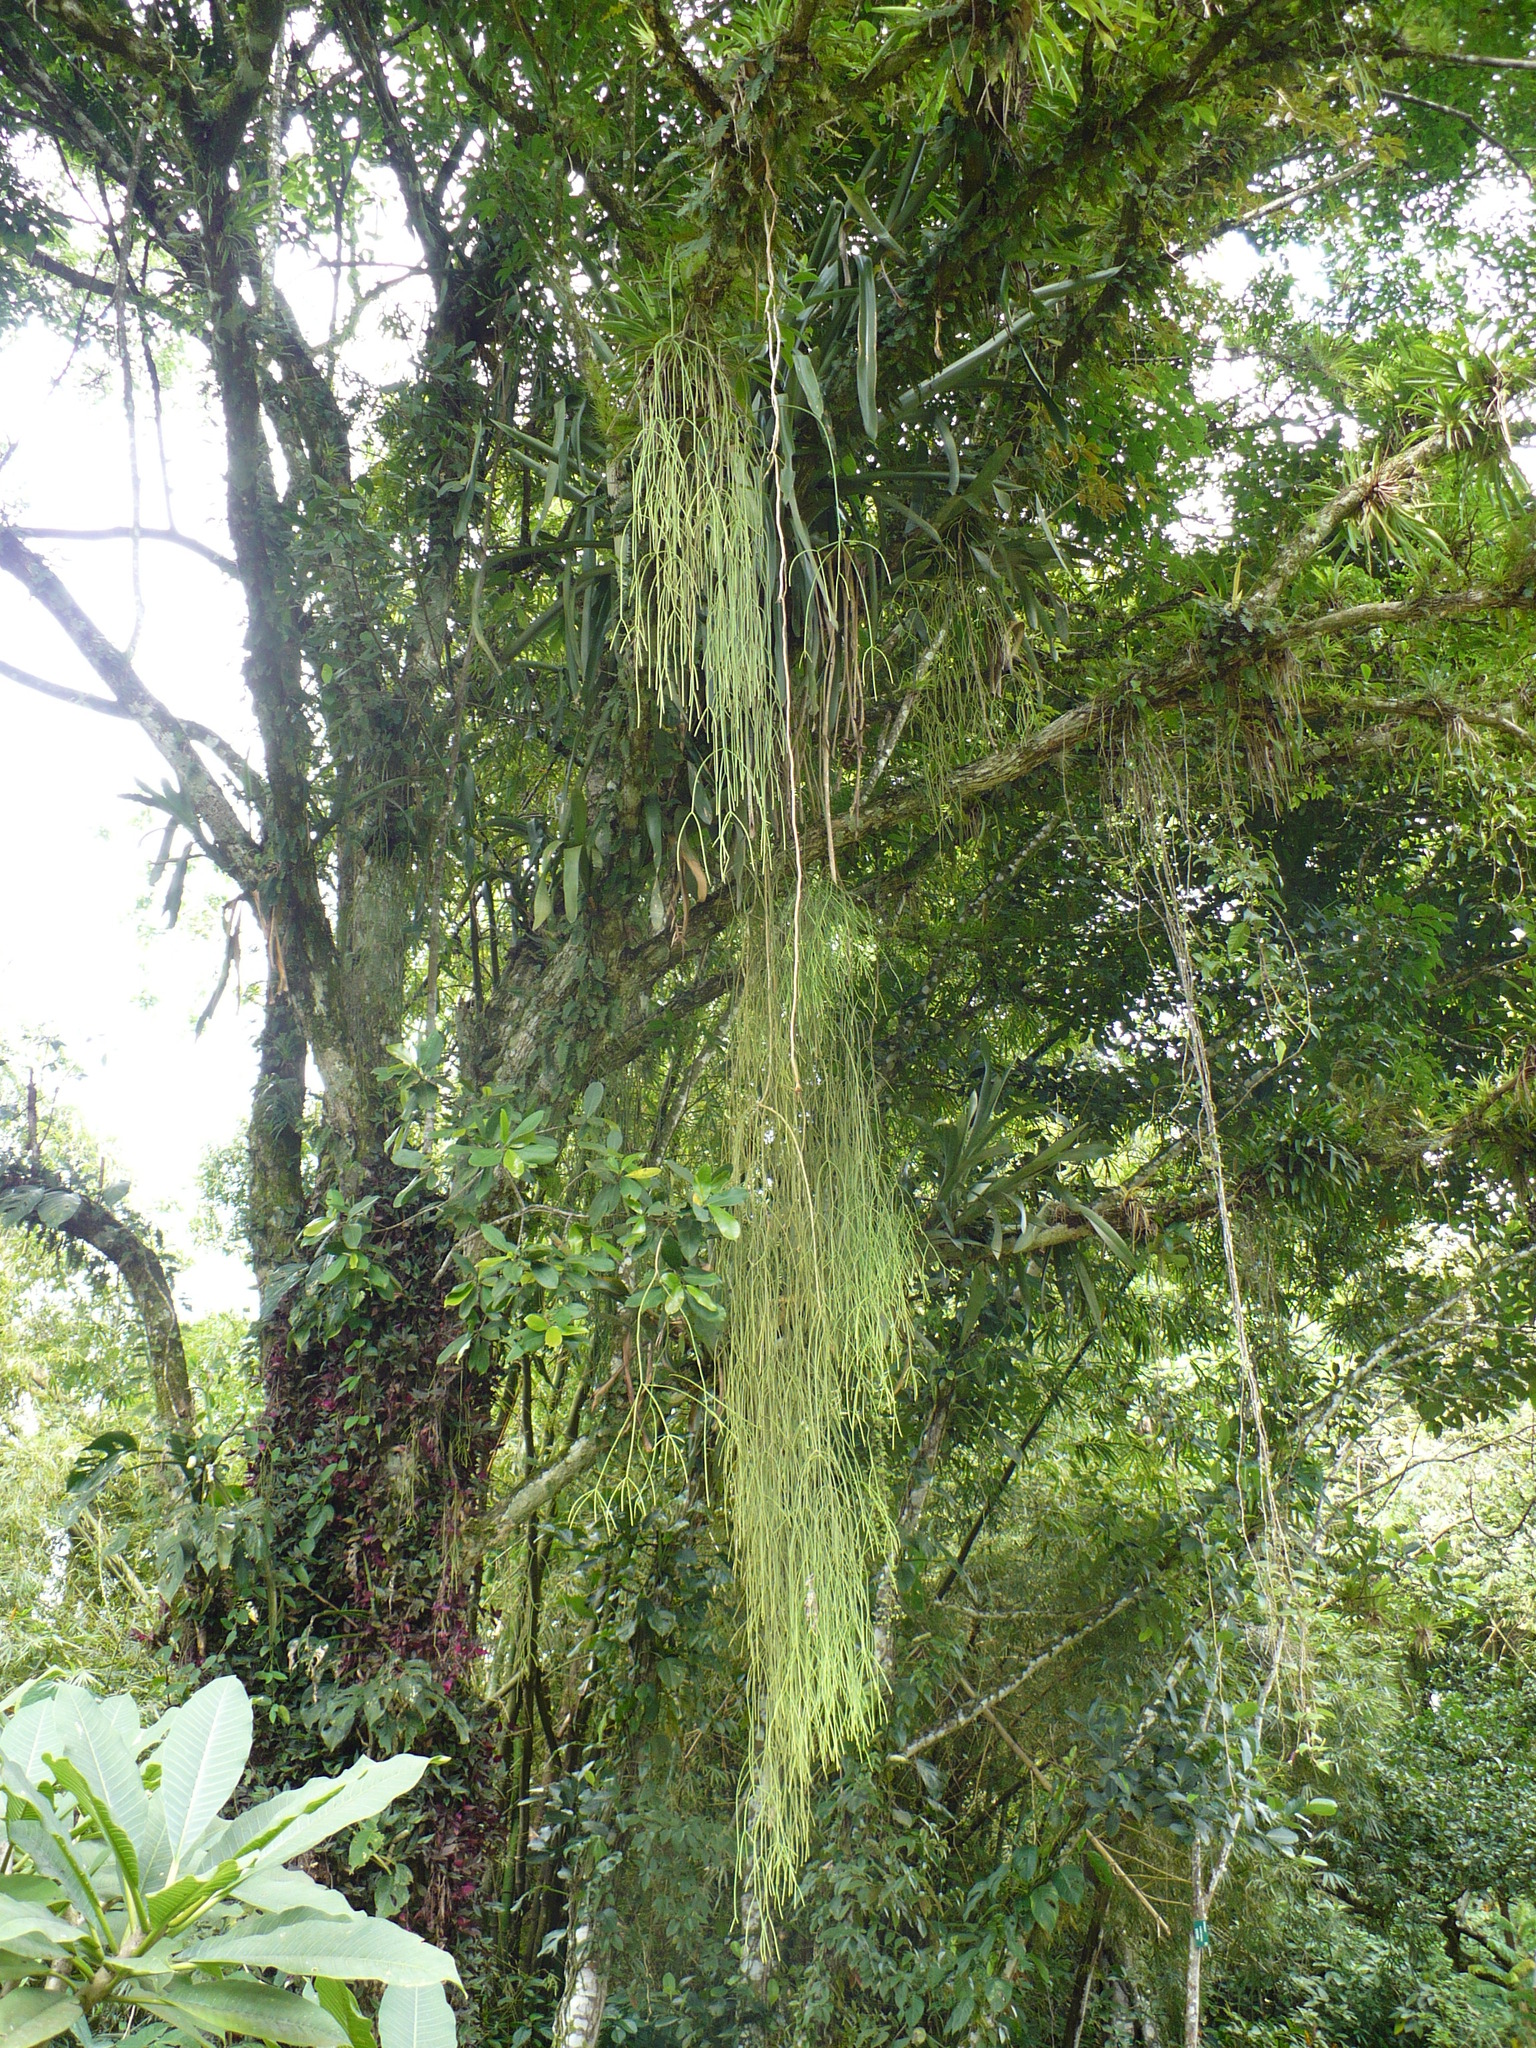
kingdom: Plantae
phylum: Tracheophyta
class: Magnoliopsida
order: Caryophyllales
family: Cactaceae
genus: Rhipsalis
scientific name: Rhipsalis baccifera
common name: Mistletoe cactus
